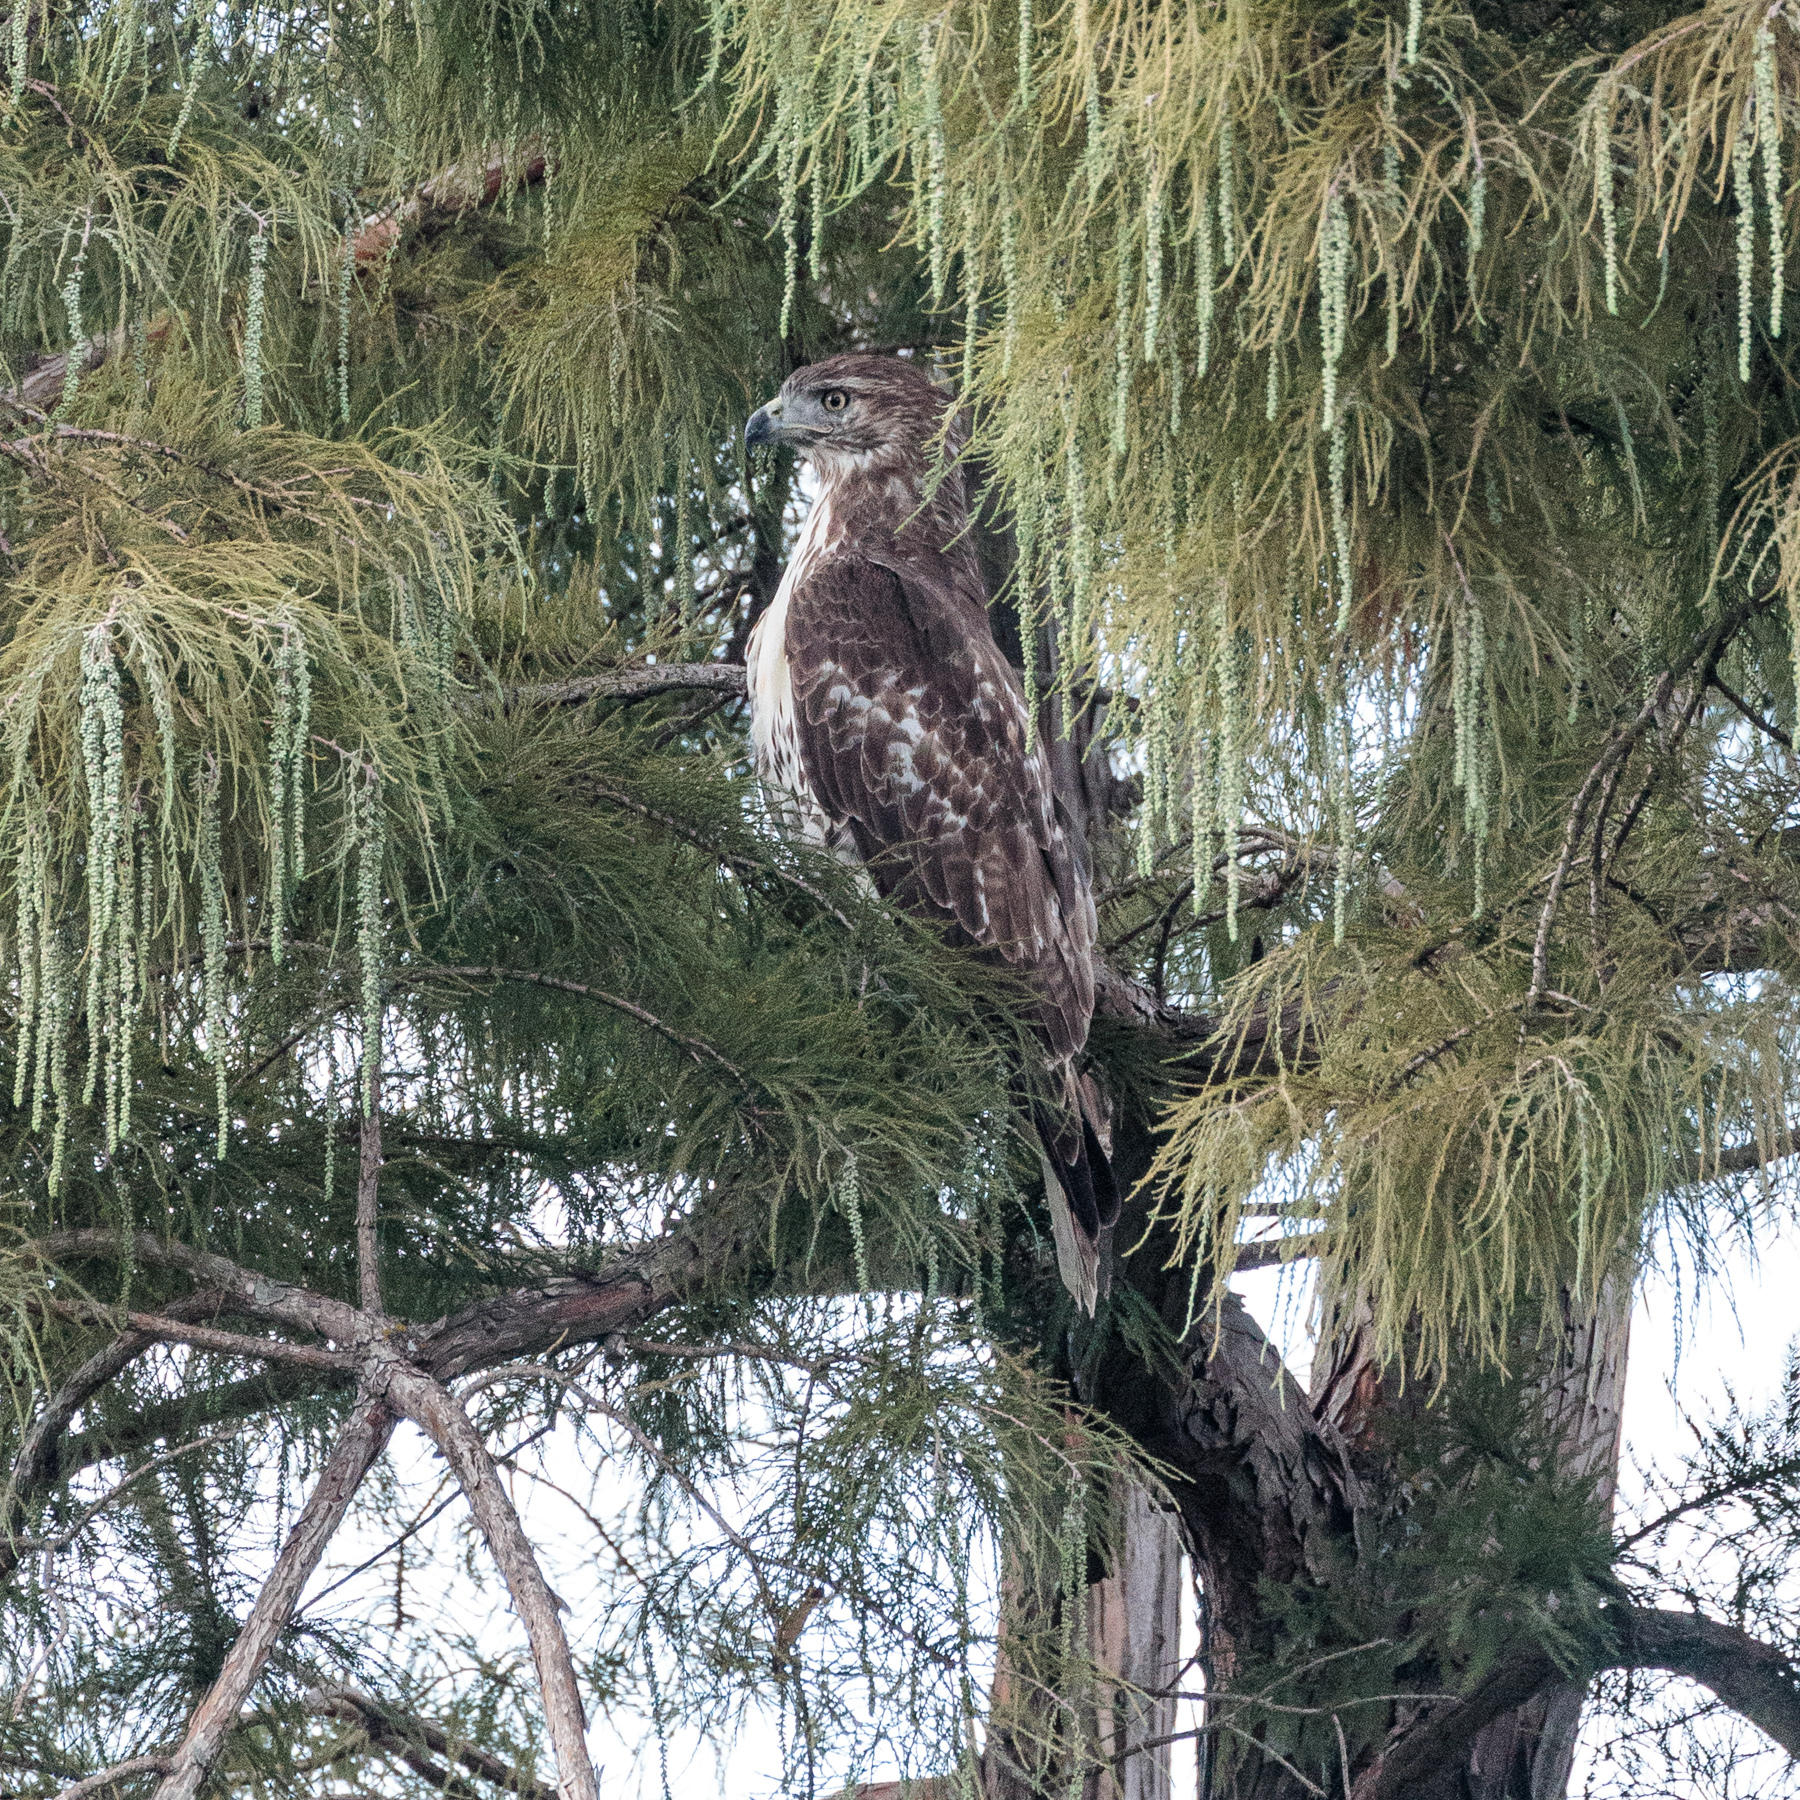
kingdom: Animalia
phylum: Chordata
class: Aves
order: Accipitriformes
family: Accipitridae
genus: Buteo
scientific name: Buteo jamaicensis
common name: Red-tailed hawk
